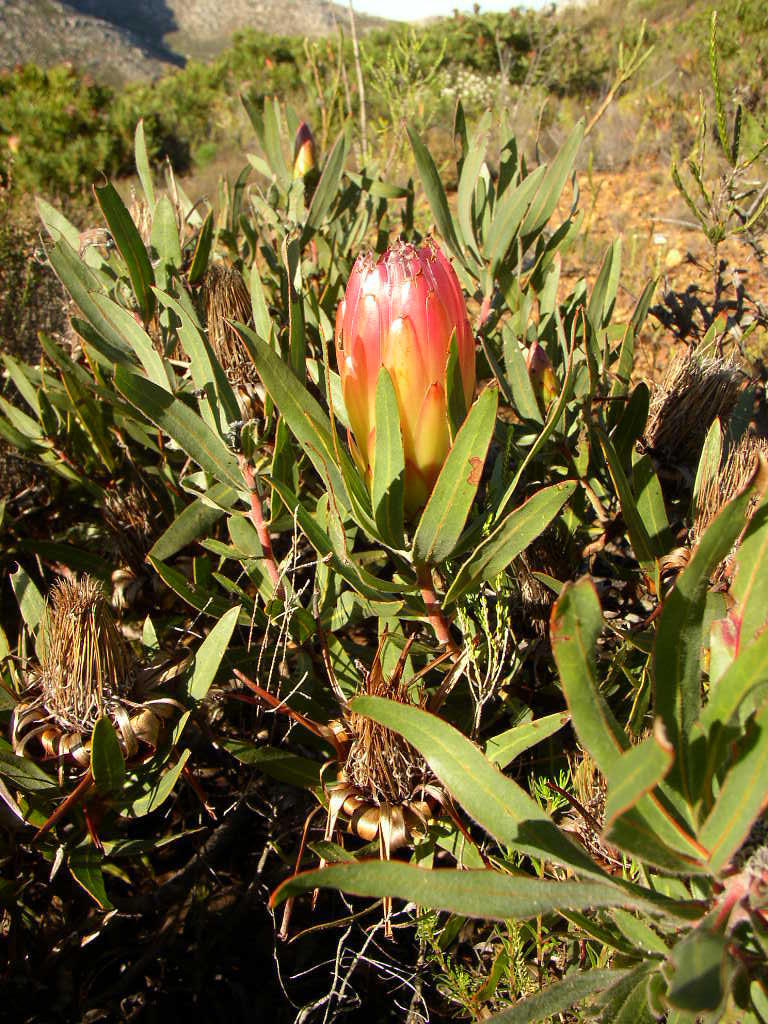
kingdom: Plantae
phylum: Tracheophyta
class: Magnoliopsida
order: Proteales
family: Proteaceae
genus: Protea
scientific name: Protea burchellii
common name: Burchell's sugarbush
